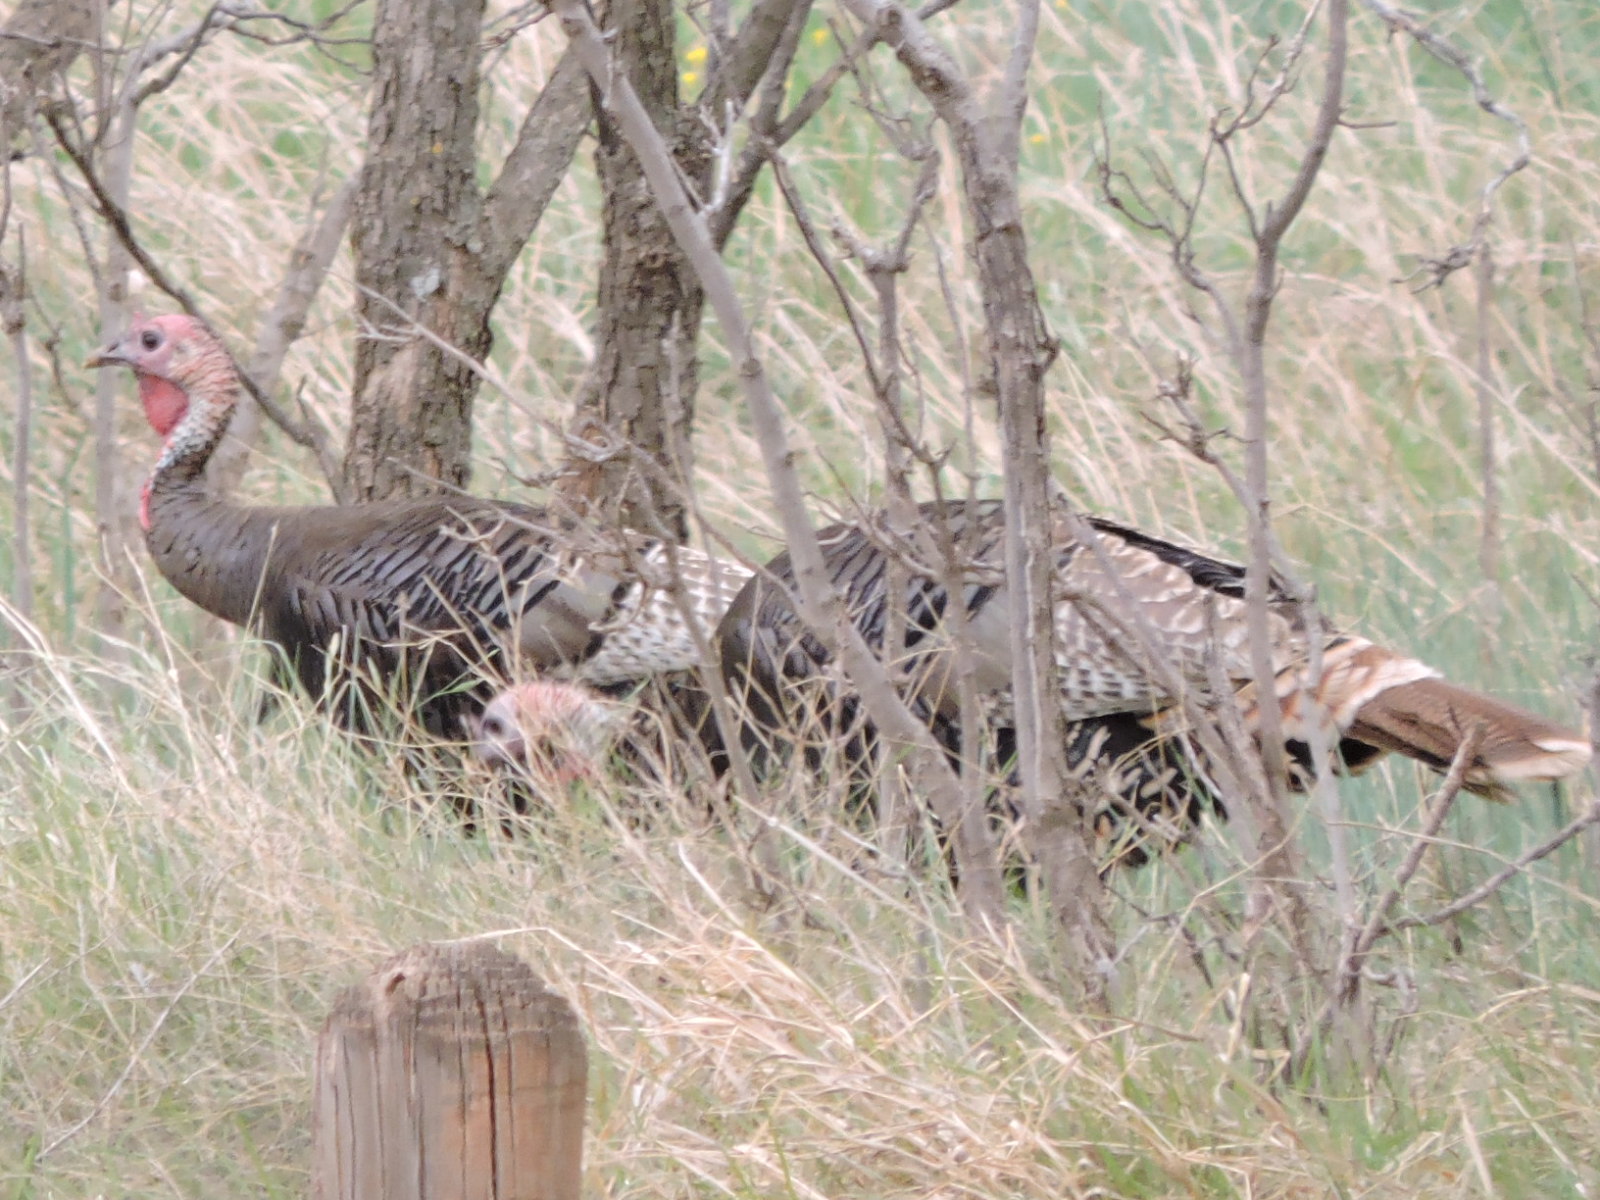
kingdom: Animalia
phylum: Chordata
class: Aves
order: Galliformes
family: Phasianidae
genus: Meleagris
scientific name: Meleagris gallopavo
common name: Wild turkey
